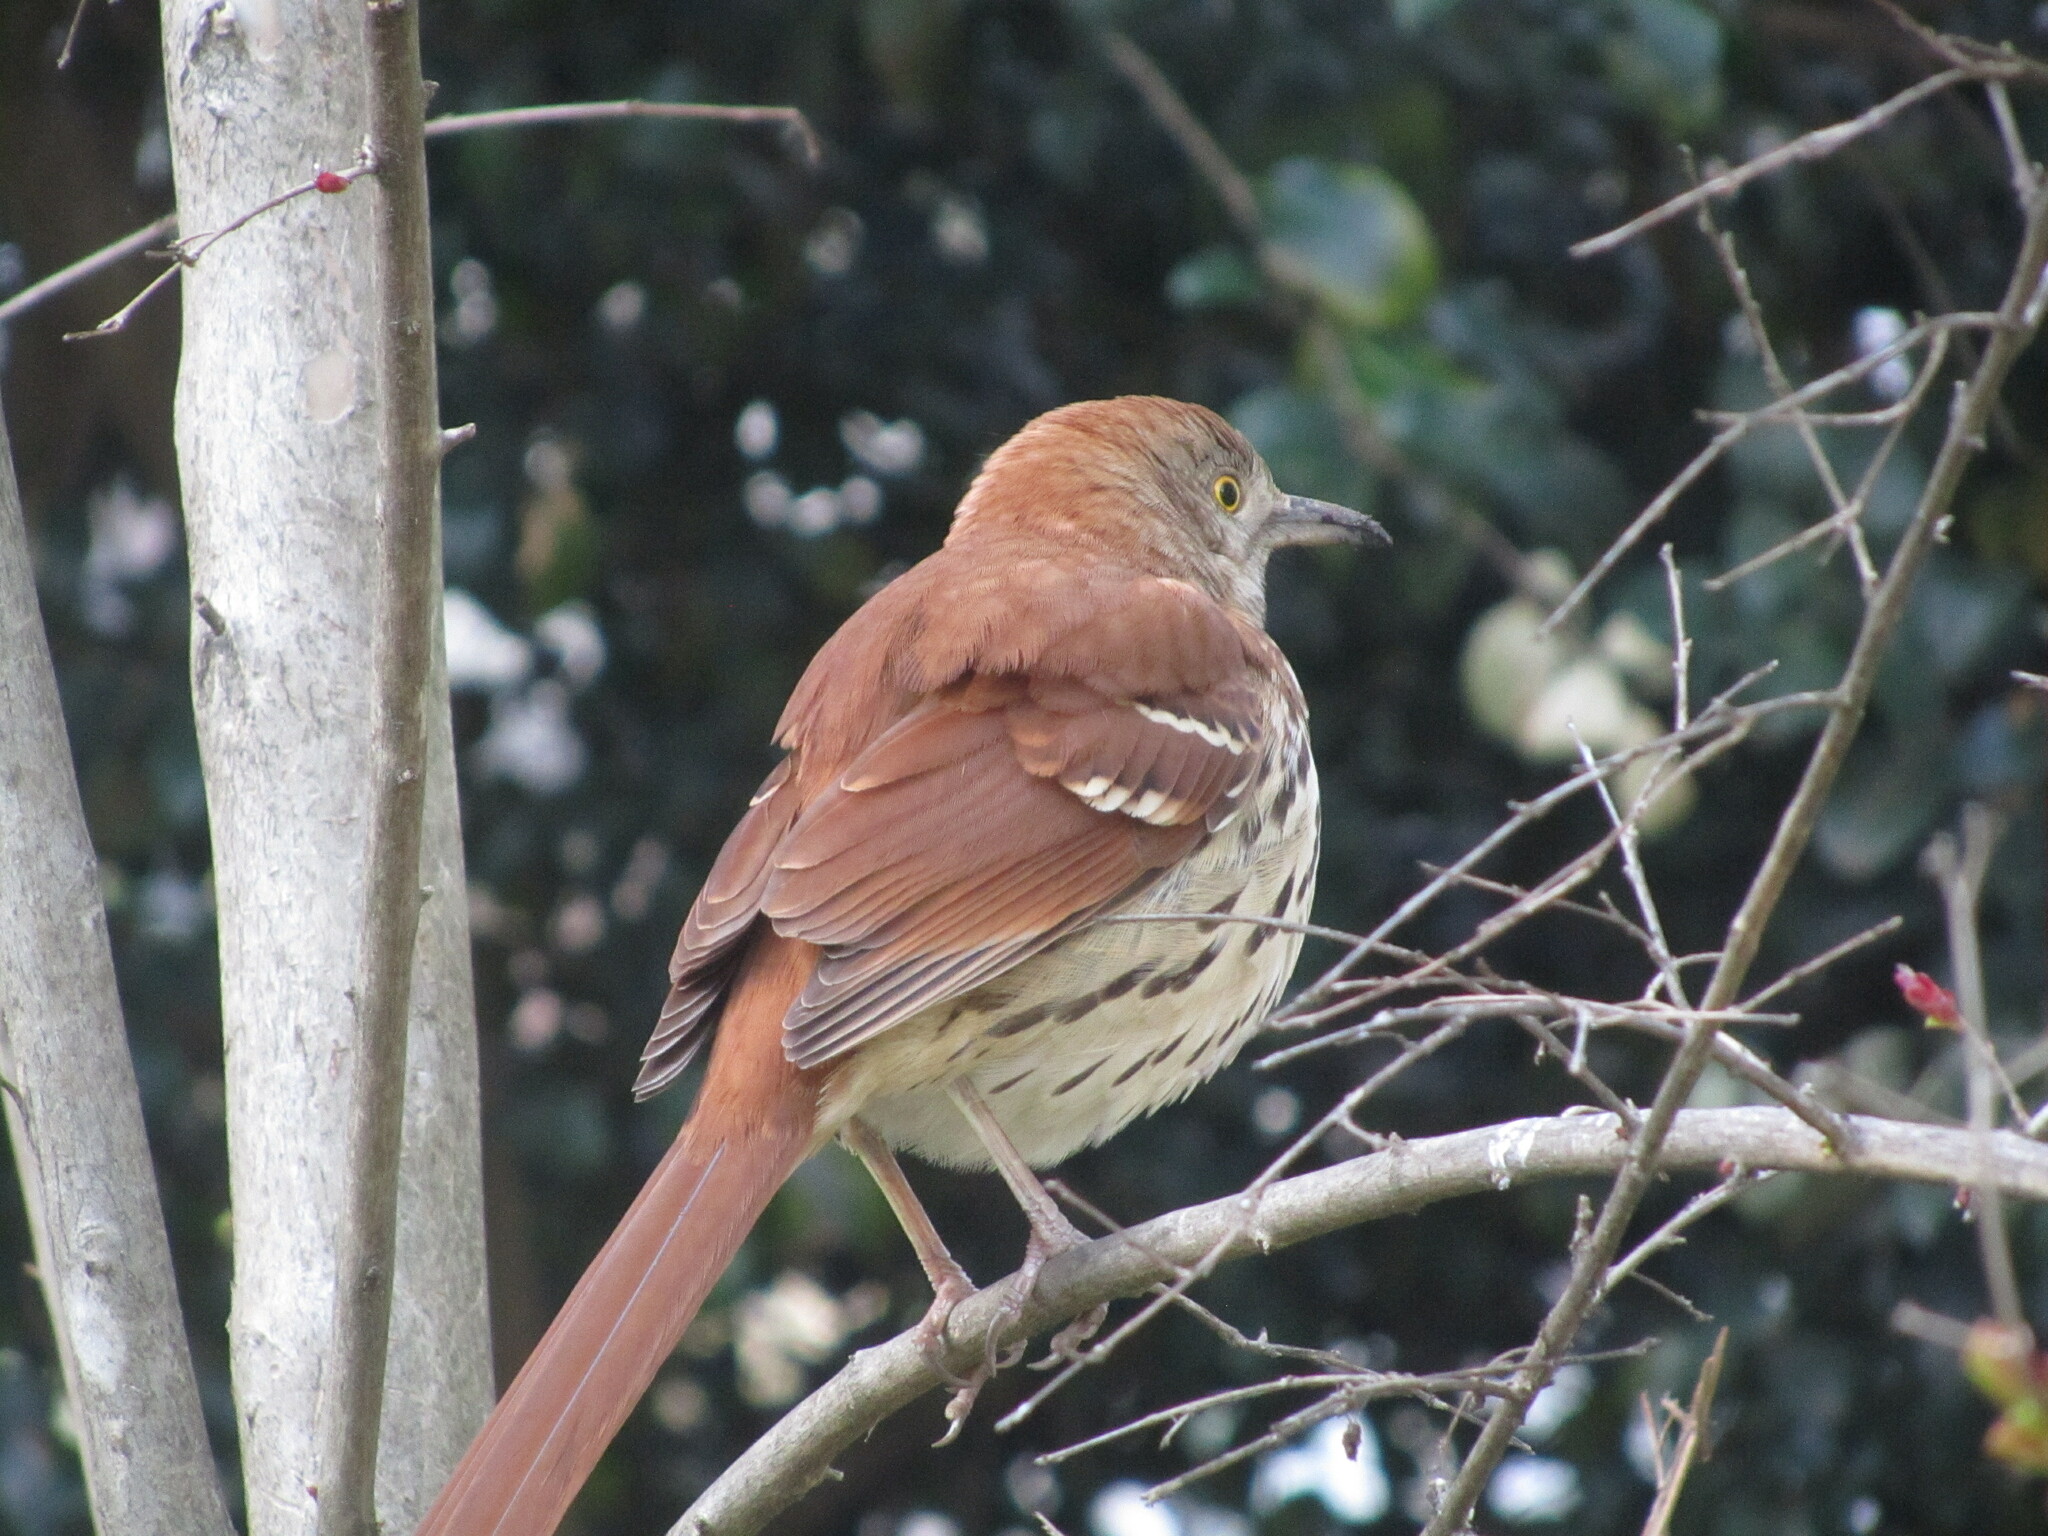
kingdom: Animalia
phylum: Chordata
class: Aves
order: Passeriformes
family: Mimidae
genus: Toxostoma
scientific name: Toxostoma rufum
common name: Brown thrasher
